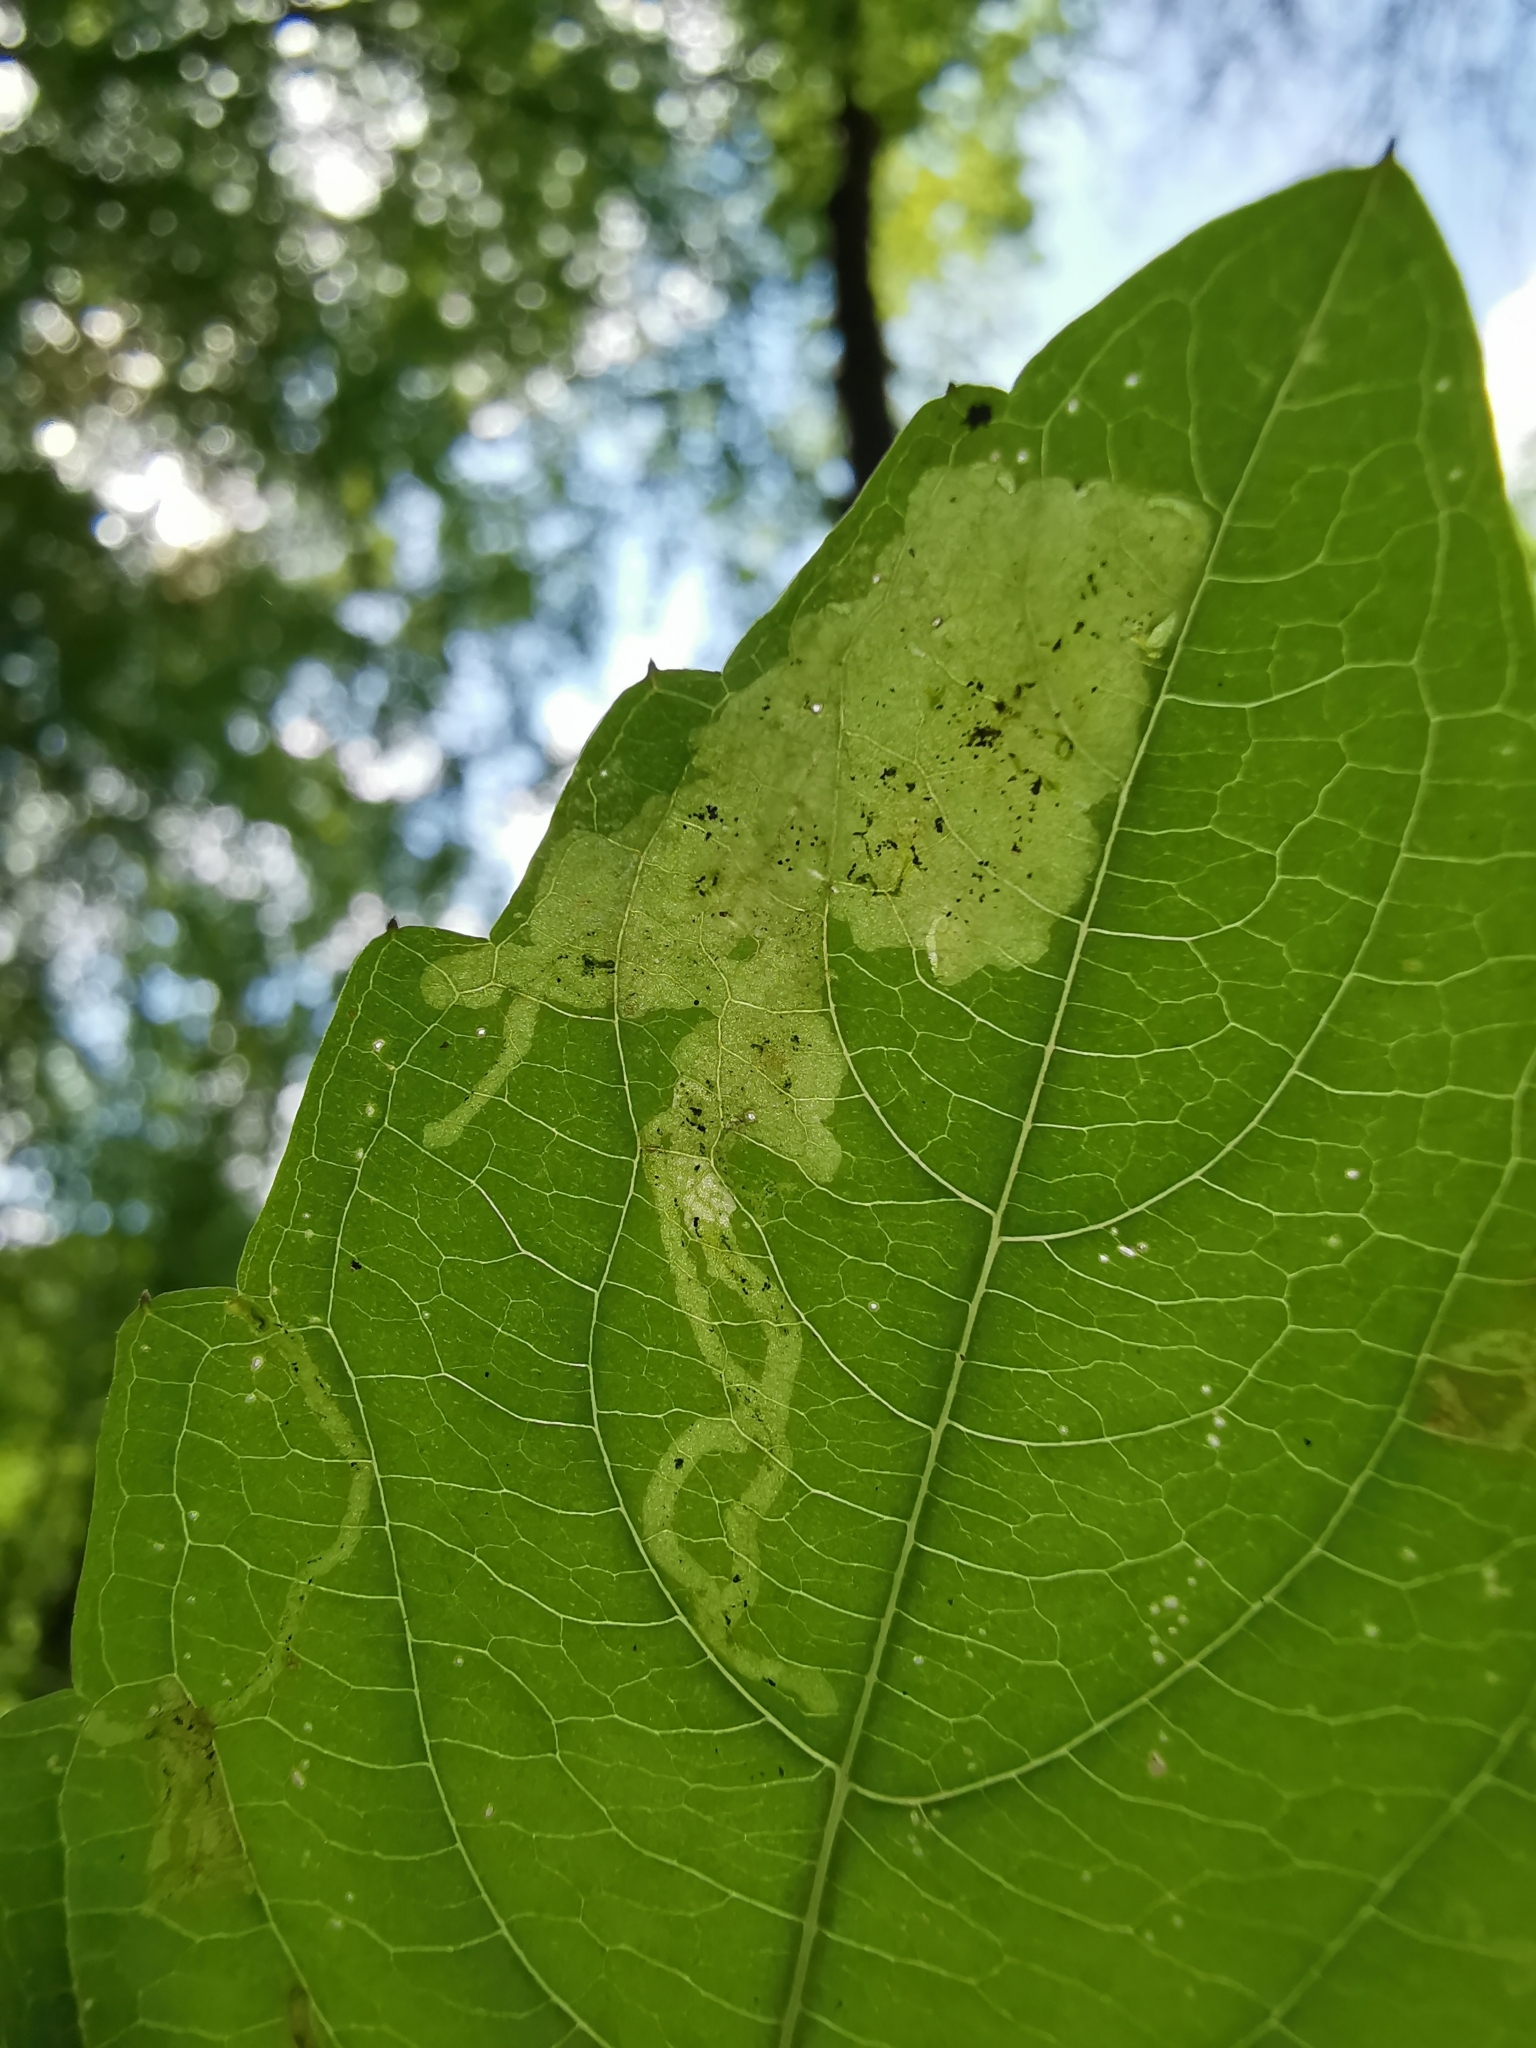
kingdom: Animalia
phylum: Arthropoda
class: Insecta
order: Diptera
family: Agromyzidae
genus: Phytoliriomyza
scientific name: Phytoliriomyza melampyga
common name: Jewelweed leaf-miner fly
